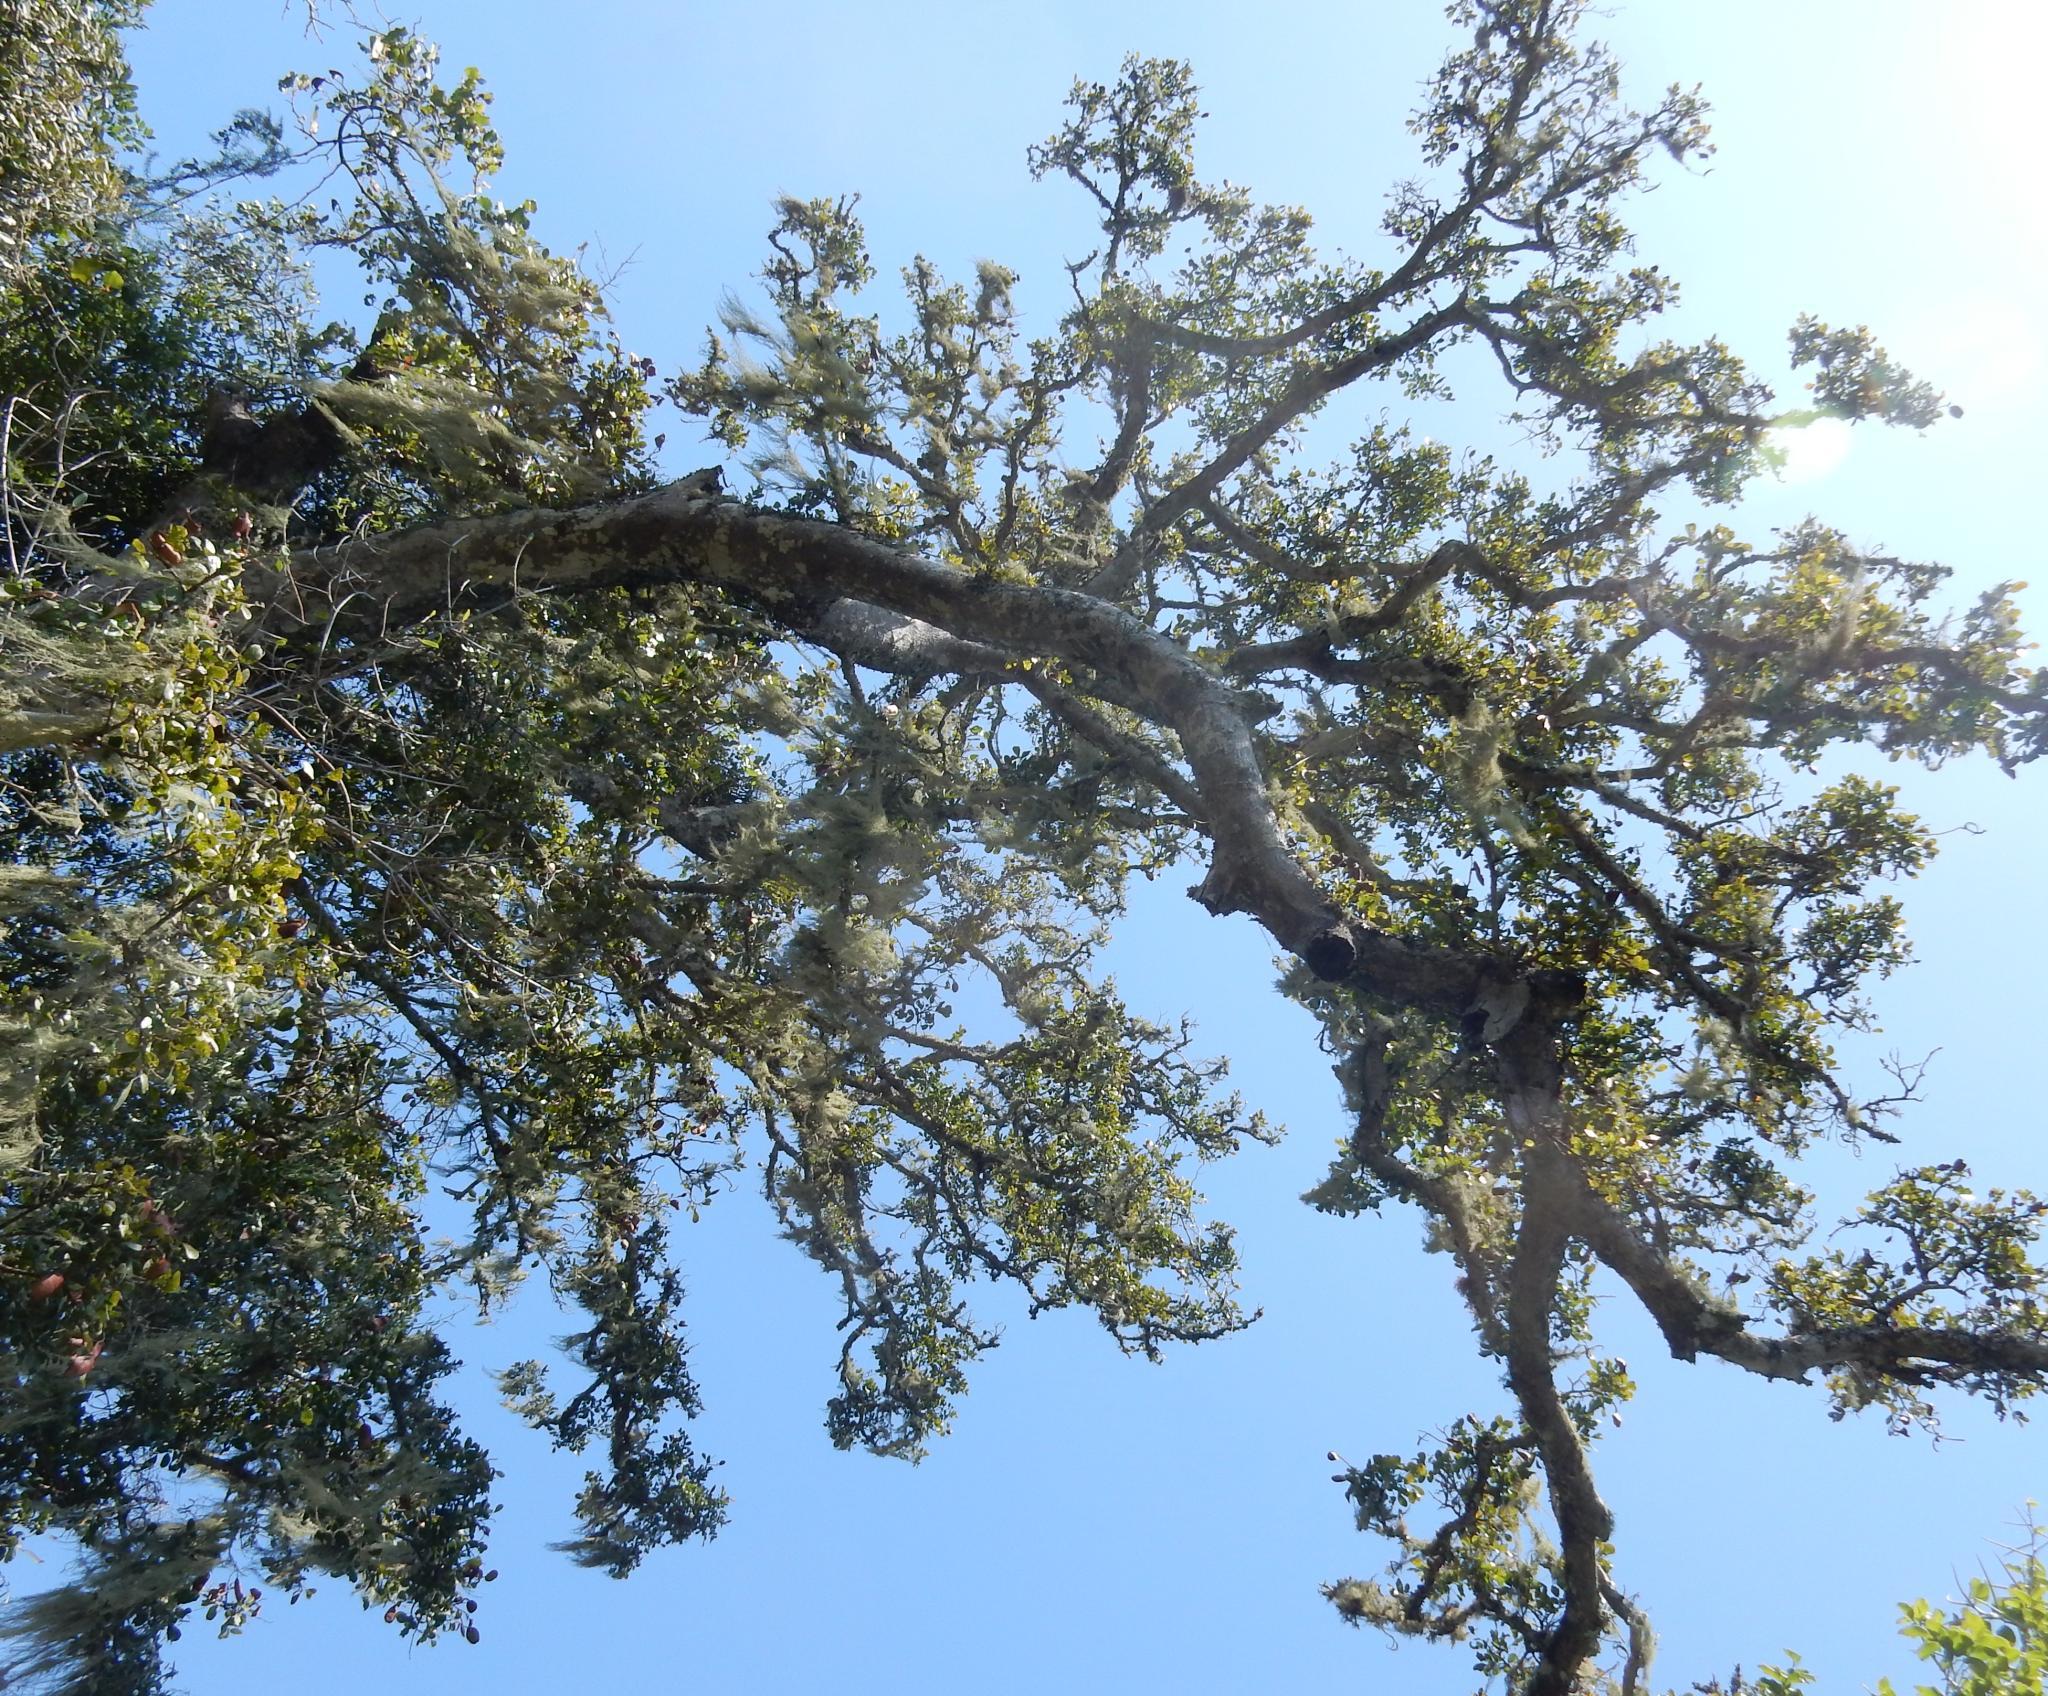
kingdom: Plantae
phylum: Tracheophyta
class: Magnoliopsida
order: Fabales
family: Fabaceae
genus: Schotia
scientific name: Schotia latifolia
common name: Bush boer-bean
